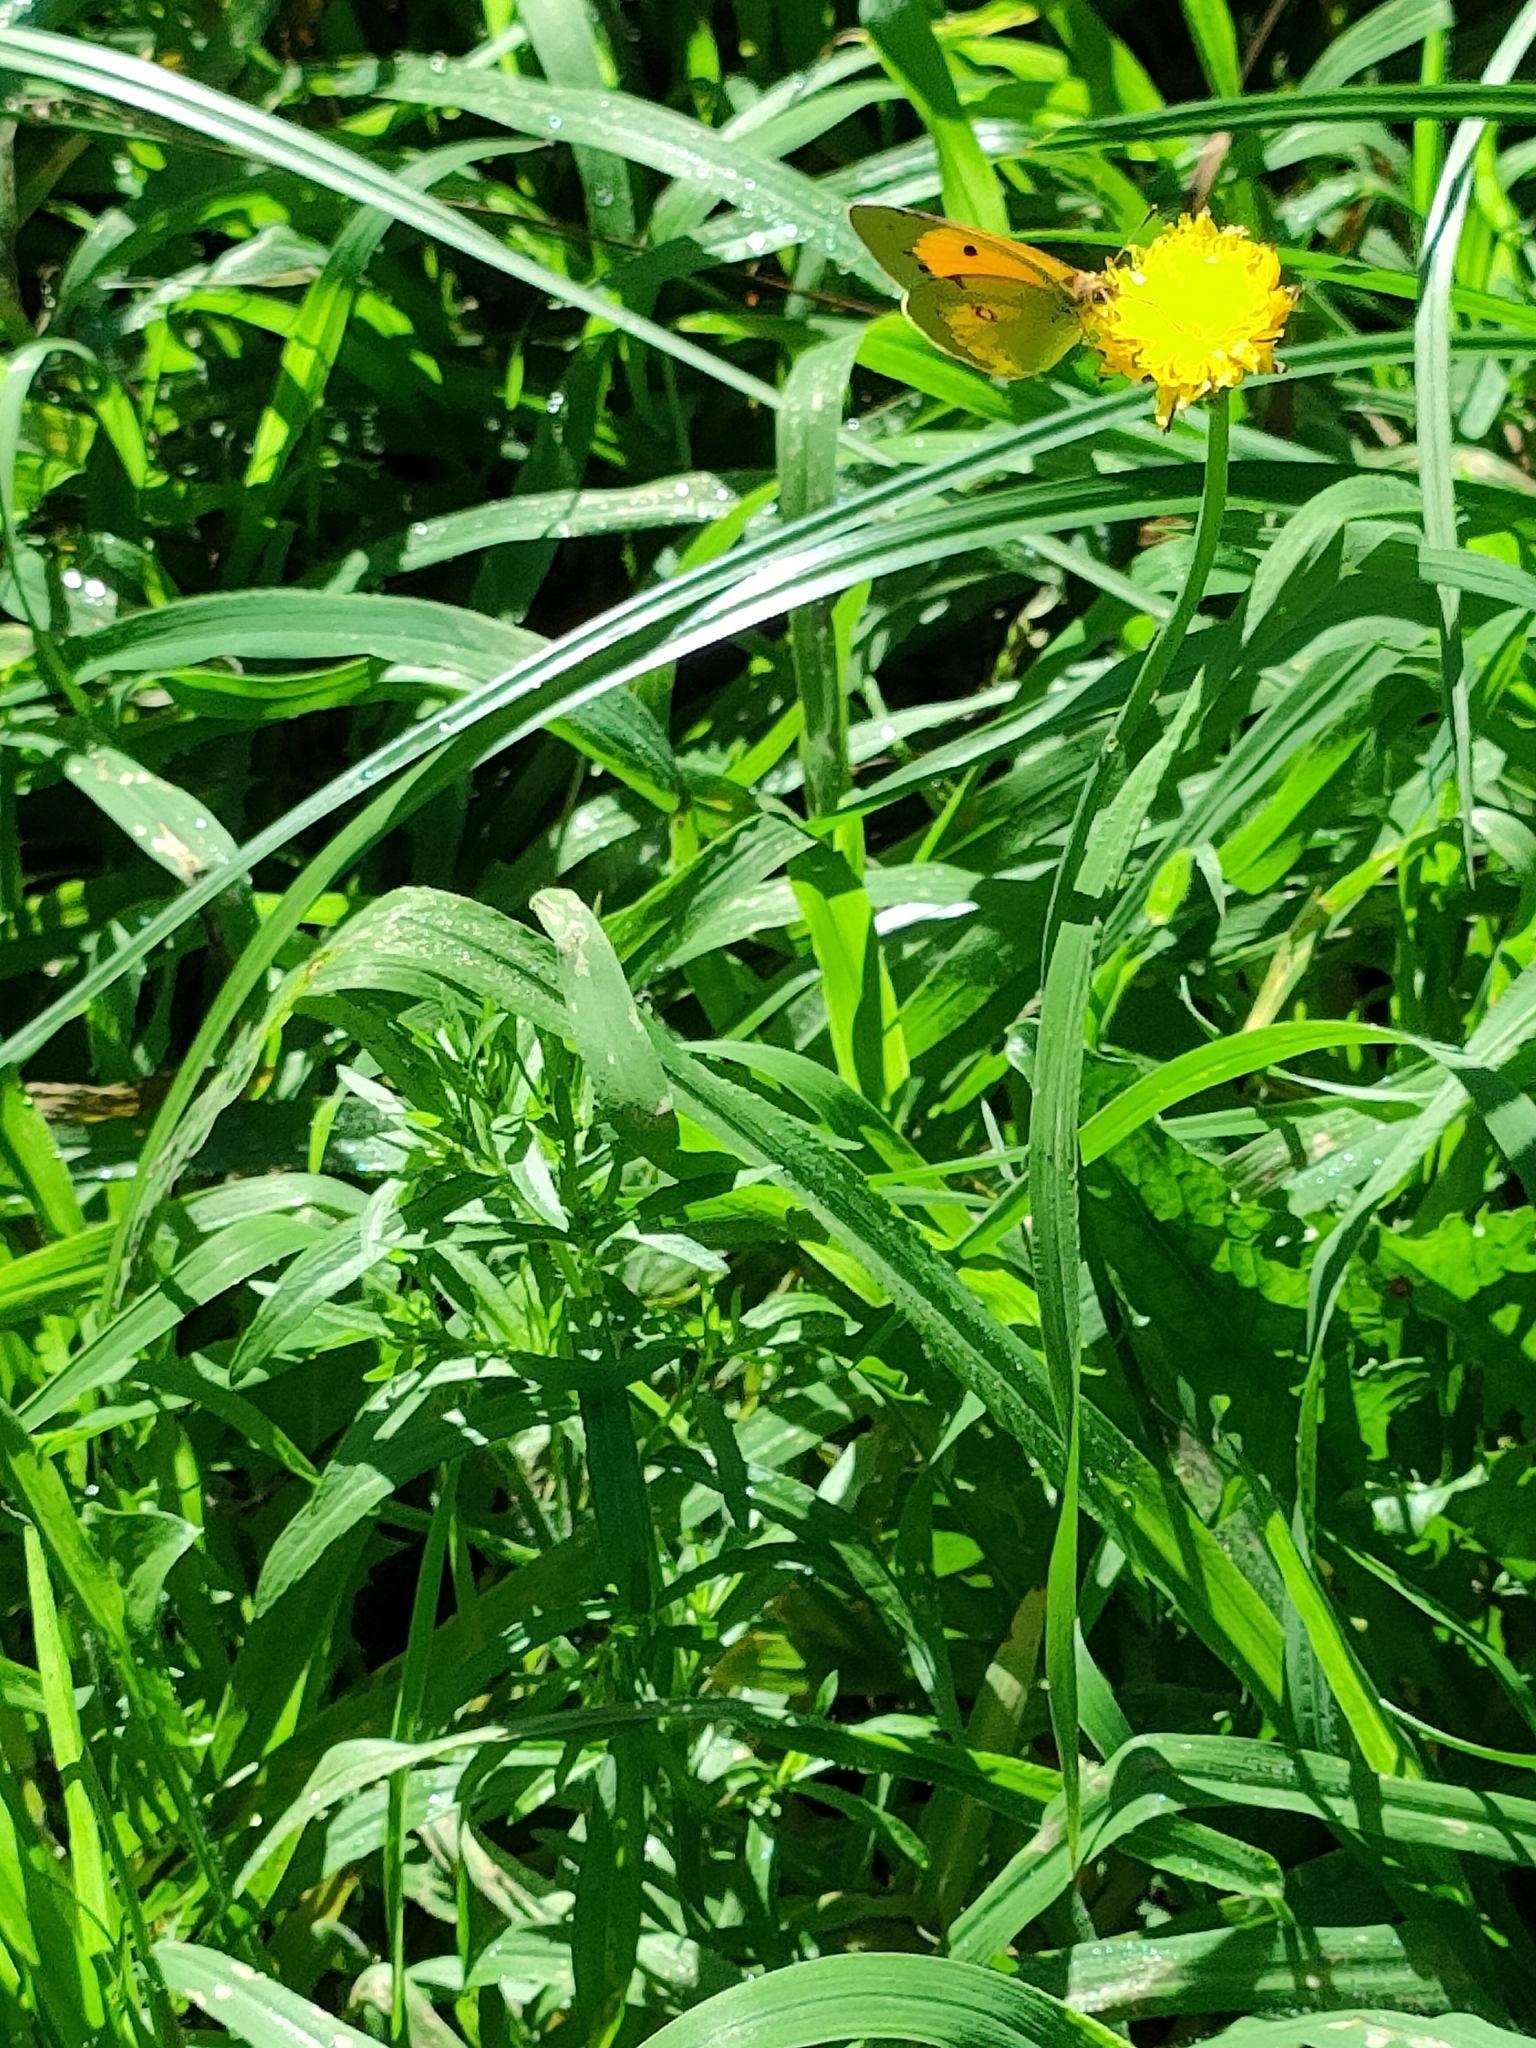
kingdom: Animalia
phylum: Arthropoda
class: Insecta
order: Lepidoptera
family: Pieridae
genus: Colias
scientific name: Colias croceus
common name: Clouded yellow
